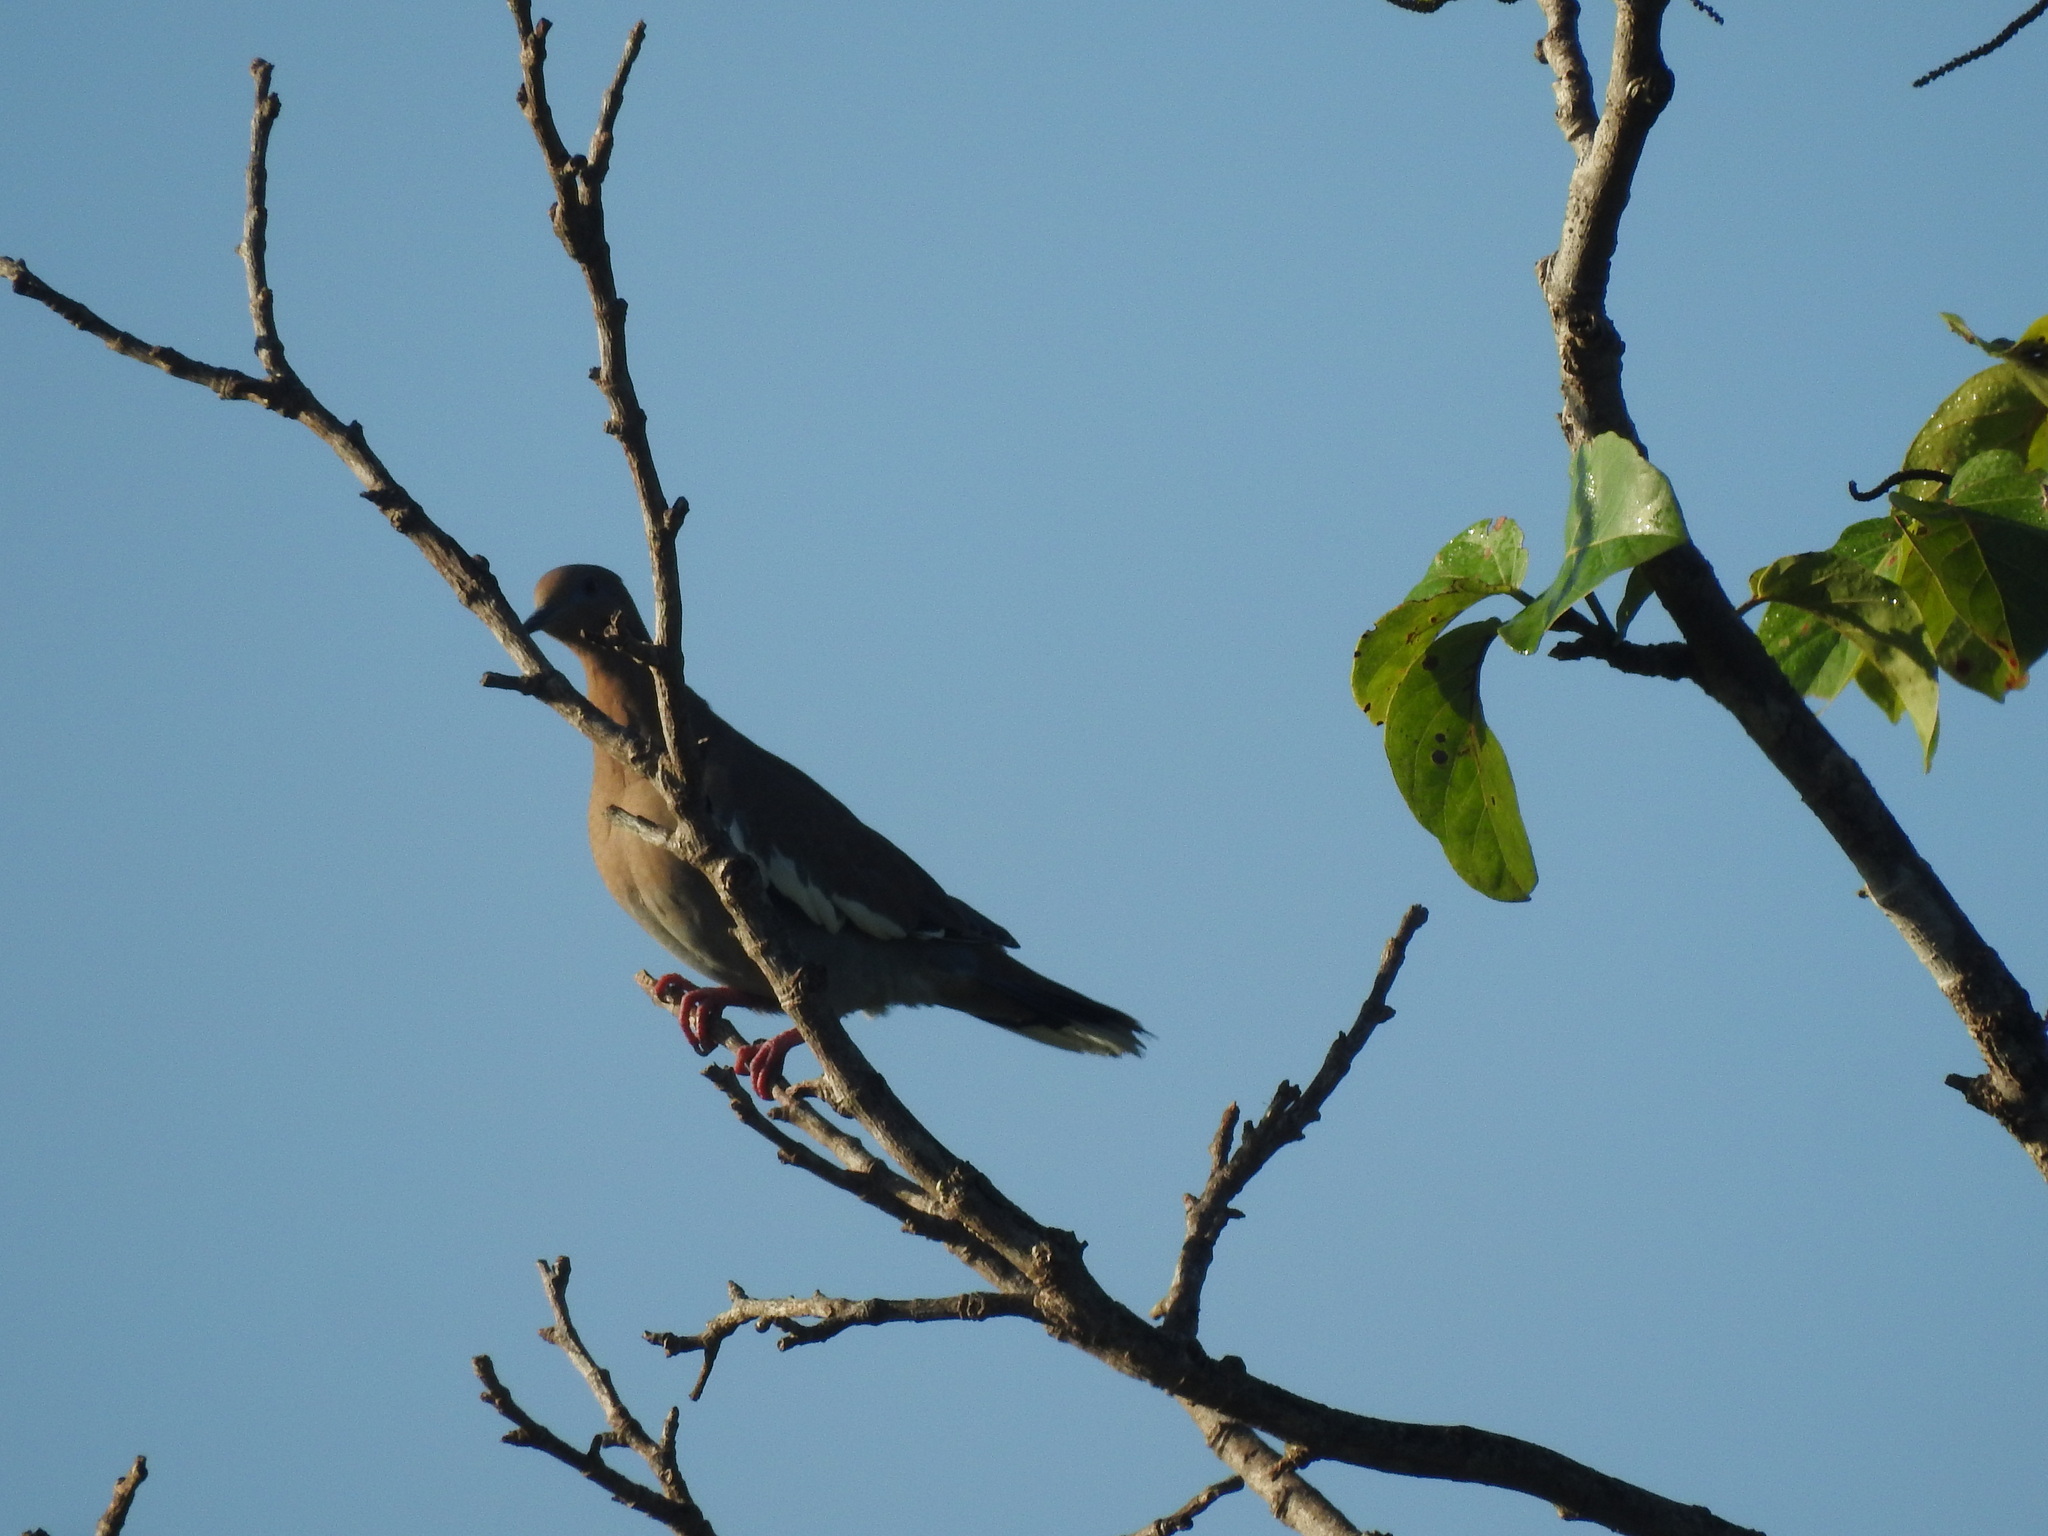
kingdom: Animalia
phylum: Chordata
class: Aves
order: Columbiformes
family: Columbidae
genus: Zenaida
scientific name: Zenaida asiatica
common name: White-winged dove
